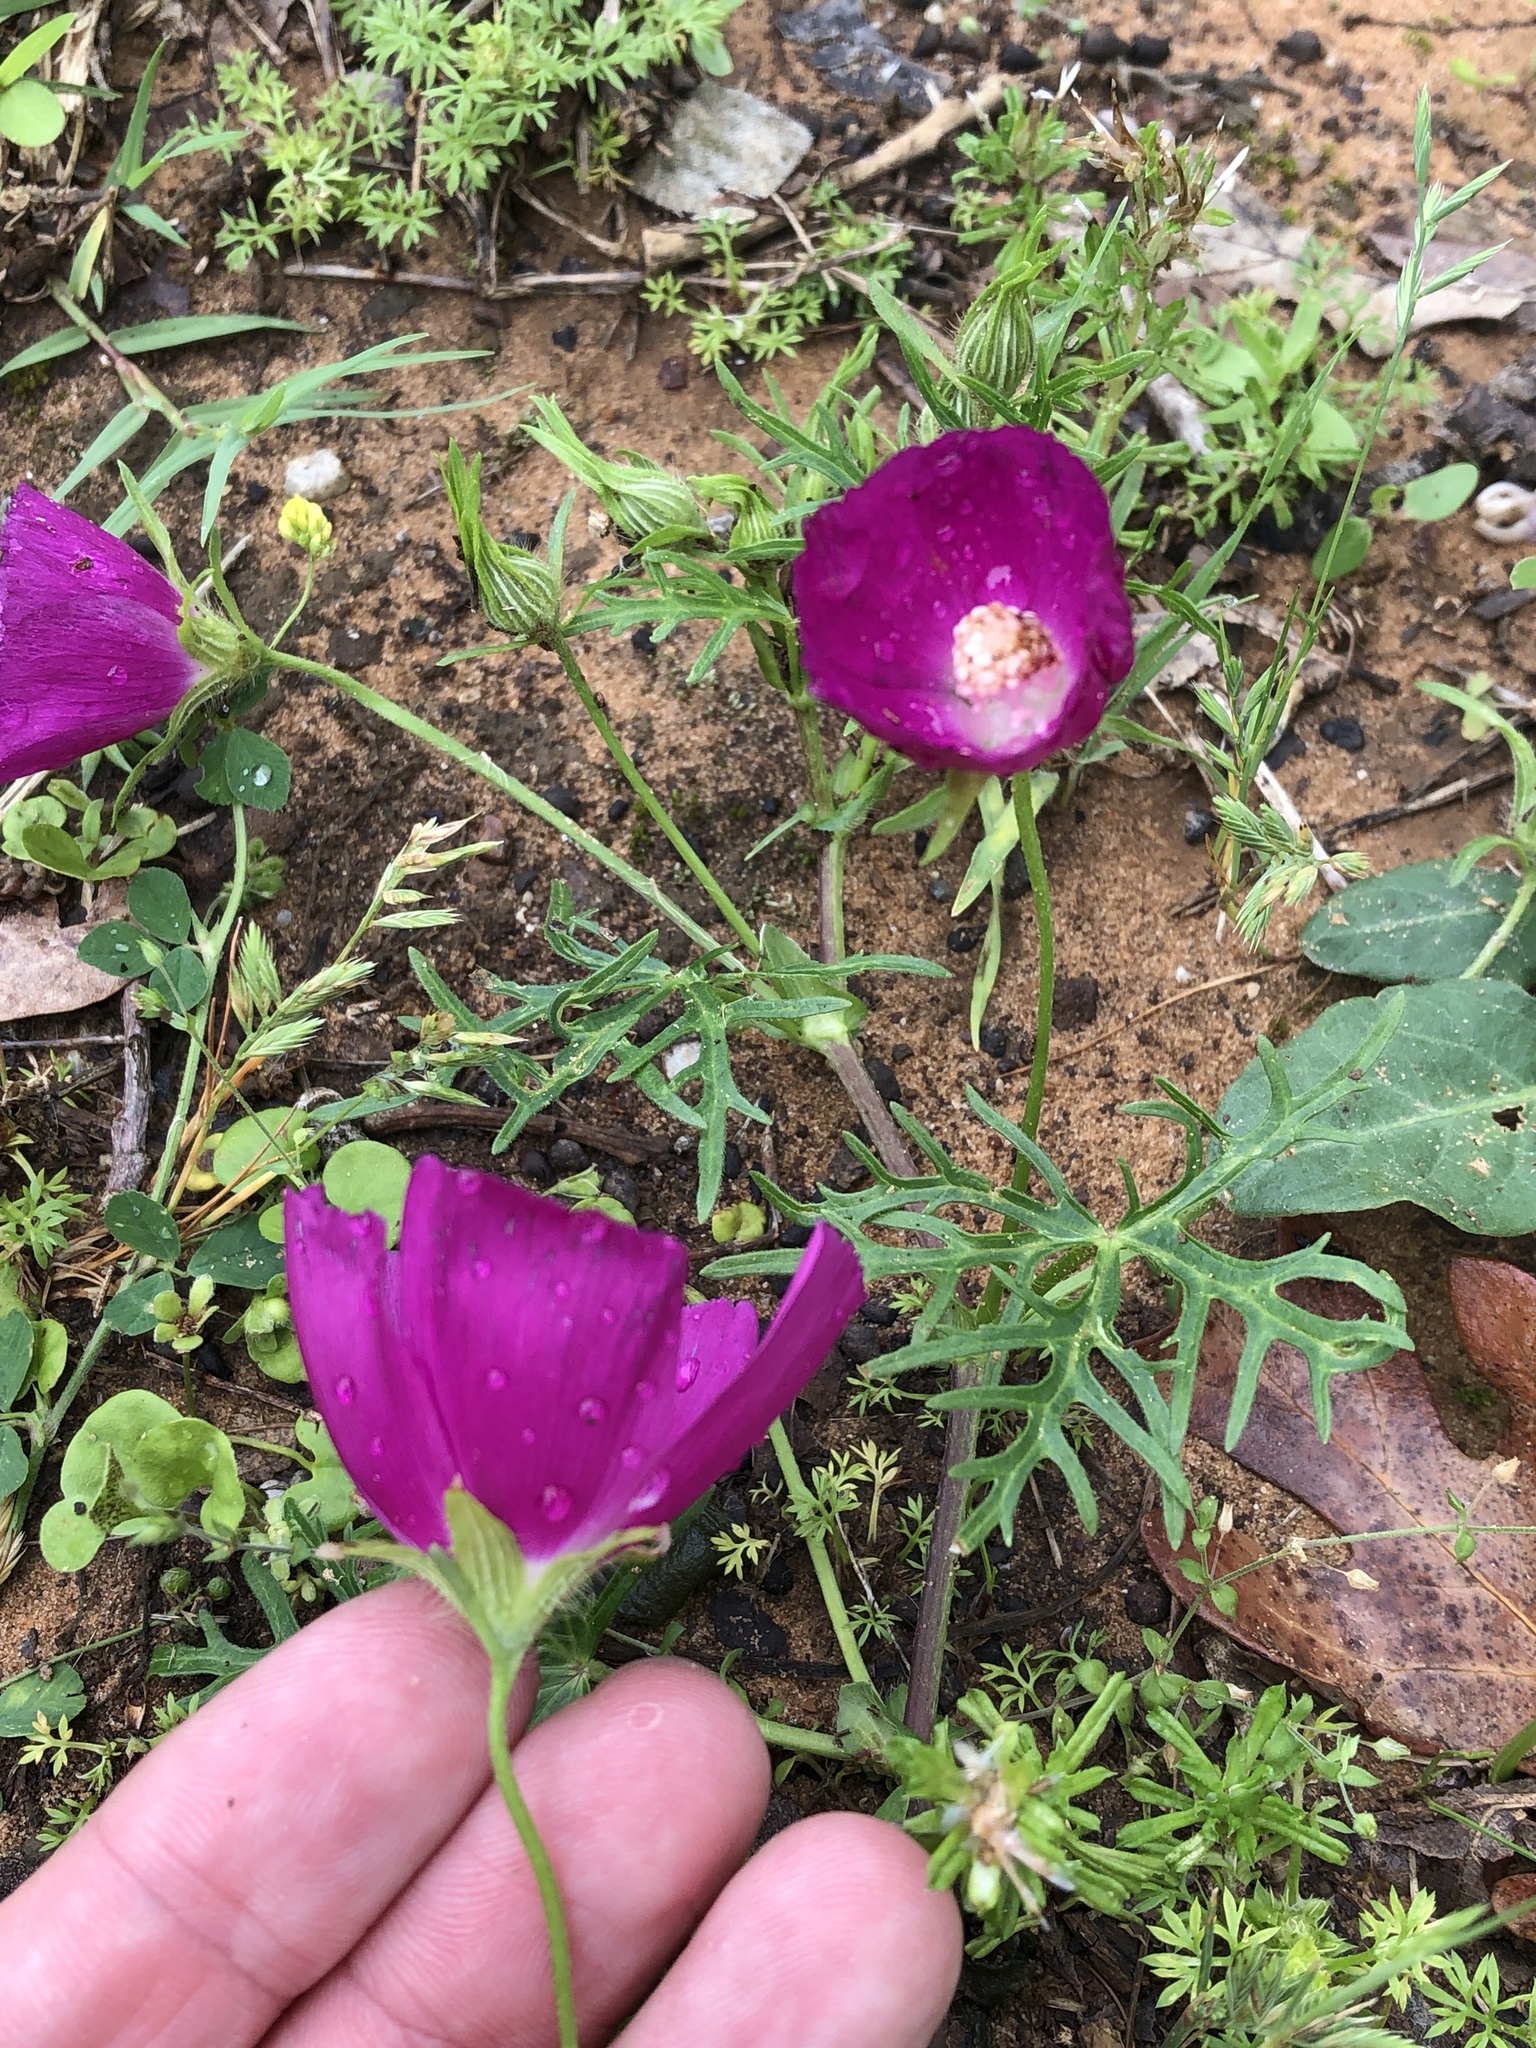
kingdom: Plantae
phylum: Tracheophyta
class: Magnoliopsida
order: Malvales
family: Malvaceae
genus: Callirhoe
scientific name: Callirhoe involucrata
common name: Purple poppy-mallow
